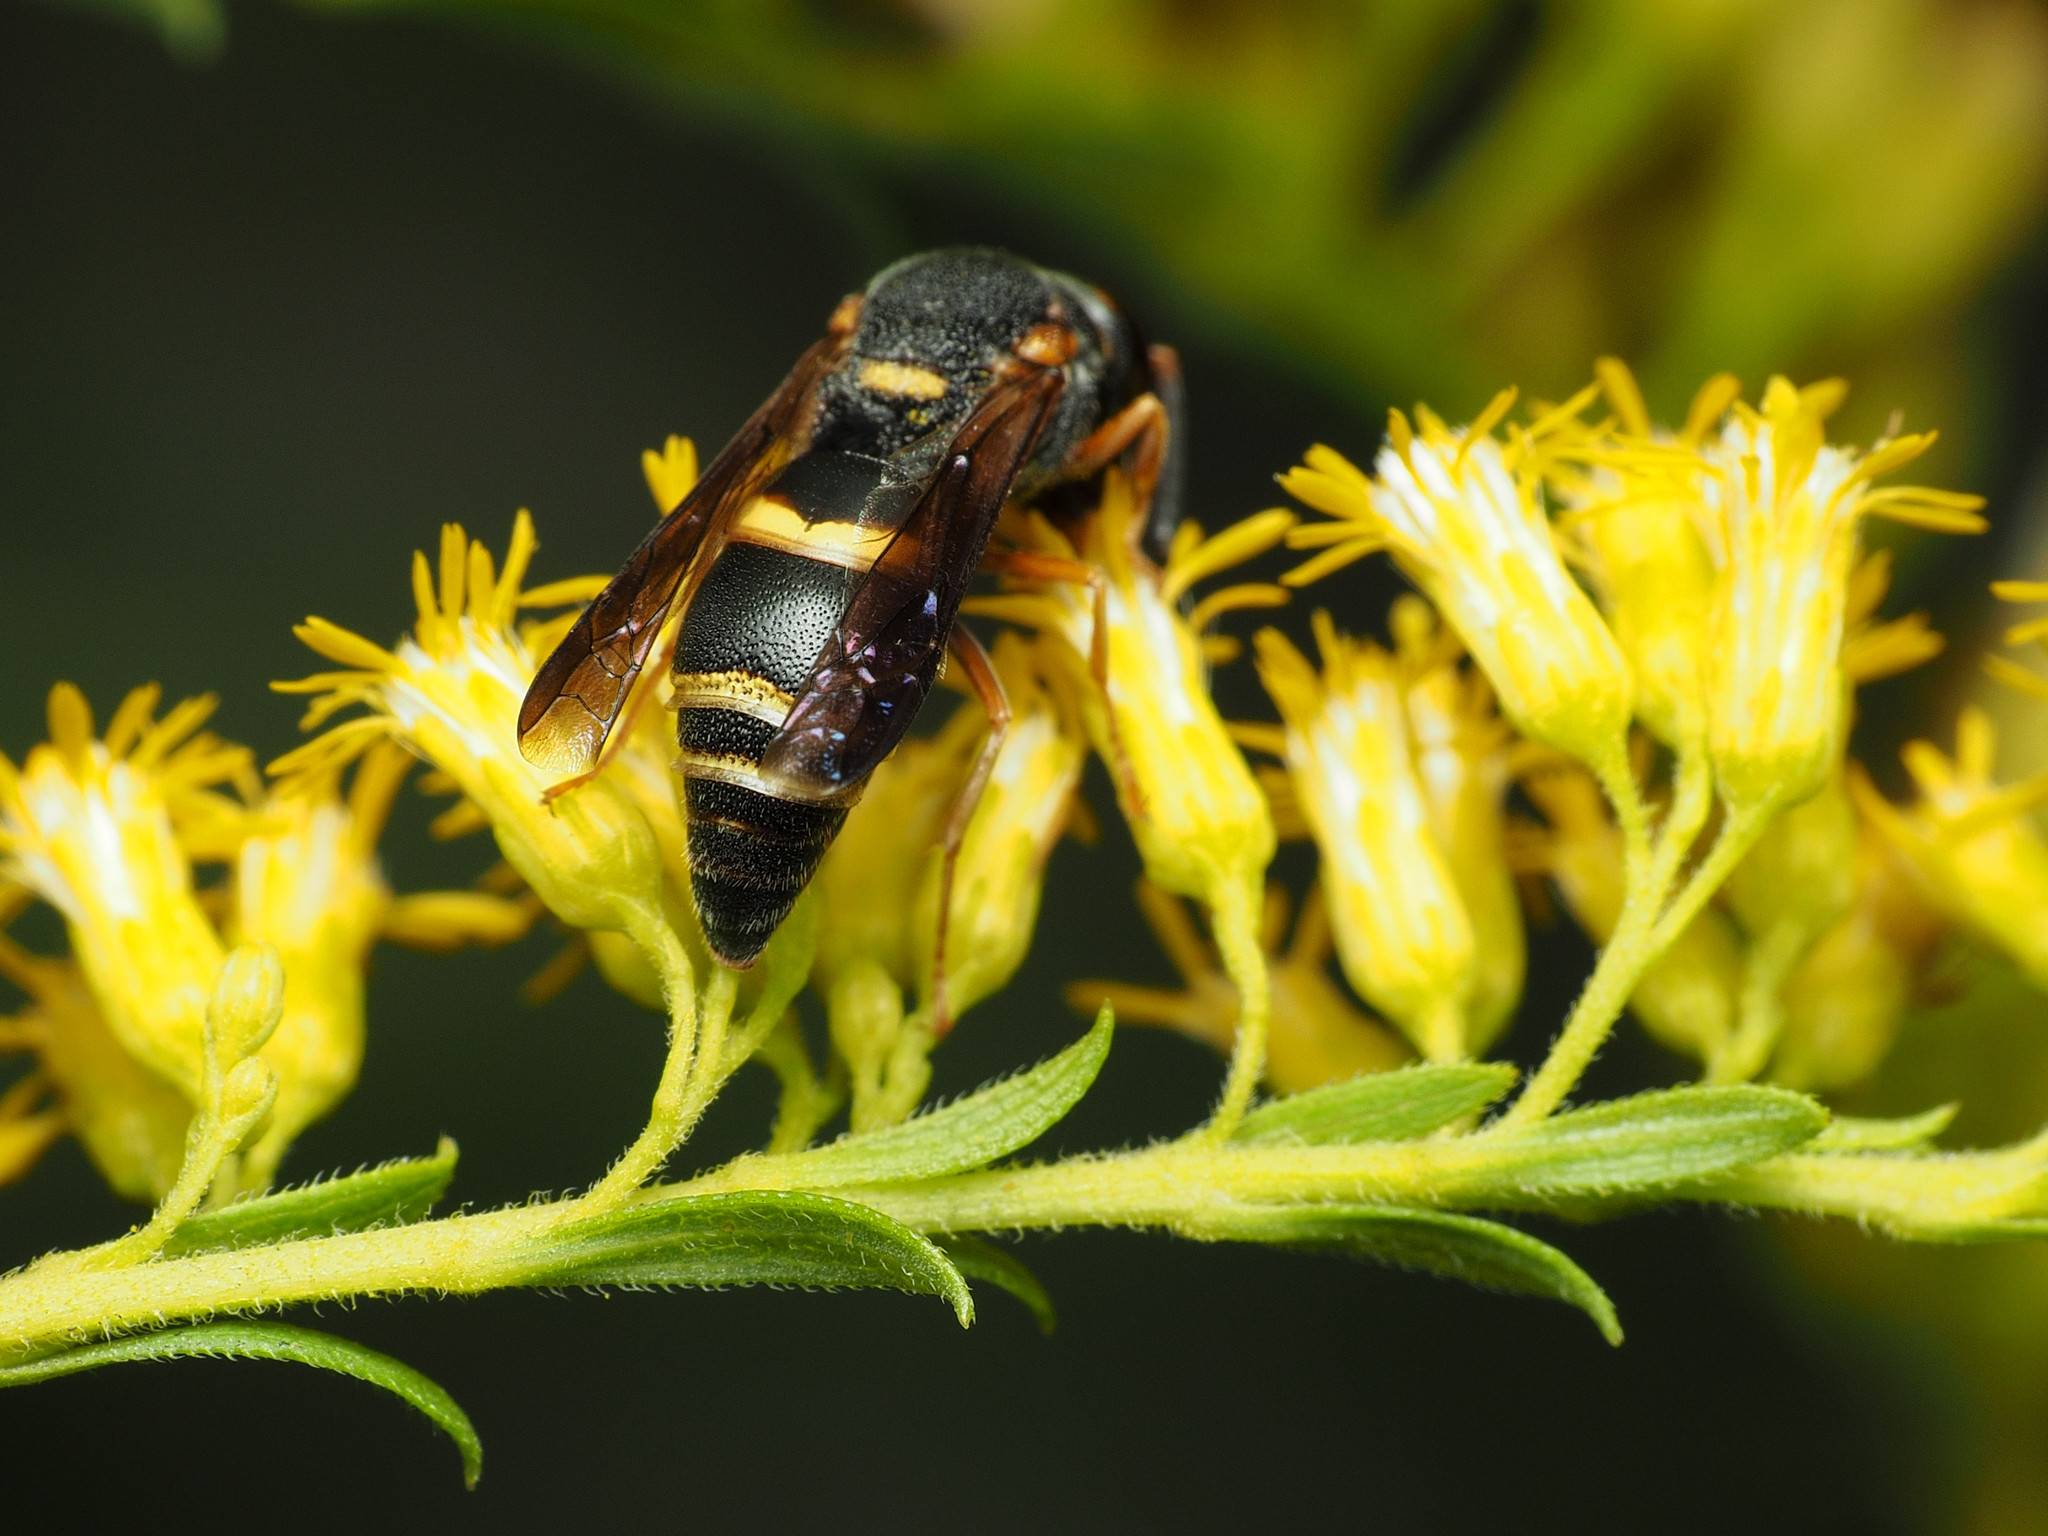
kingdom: Animalia
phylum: Arthropoda
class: Insecta
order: Hymenoptera
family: Eumenidae
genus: Euodynerus
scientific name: Euodynerus hidalgo
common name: Wasp
